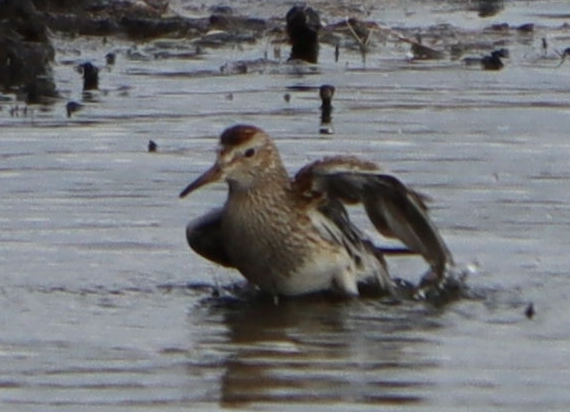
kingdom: Animalia
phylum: Chordata
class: Aves
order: Charadriiformes
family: Scolopacidae
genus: Calidris
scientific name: Calidris melanotos
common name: Pectoral sandpiper
